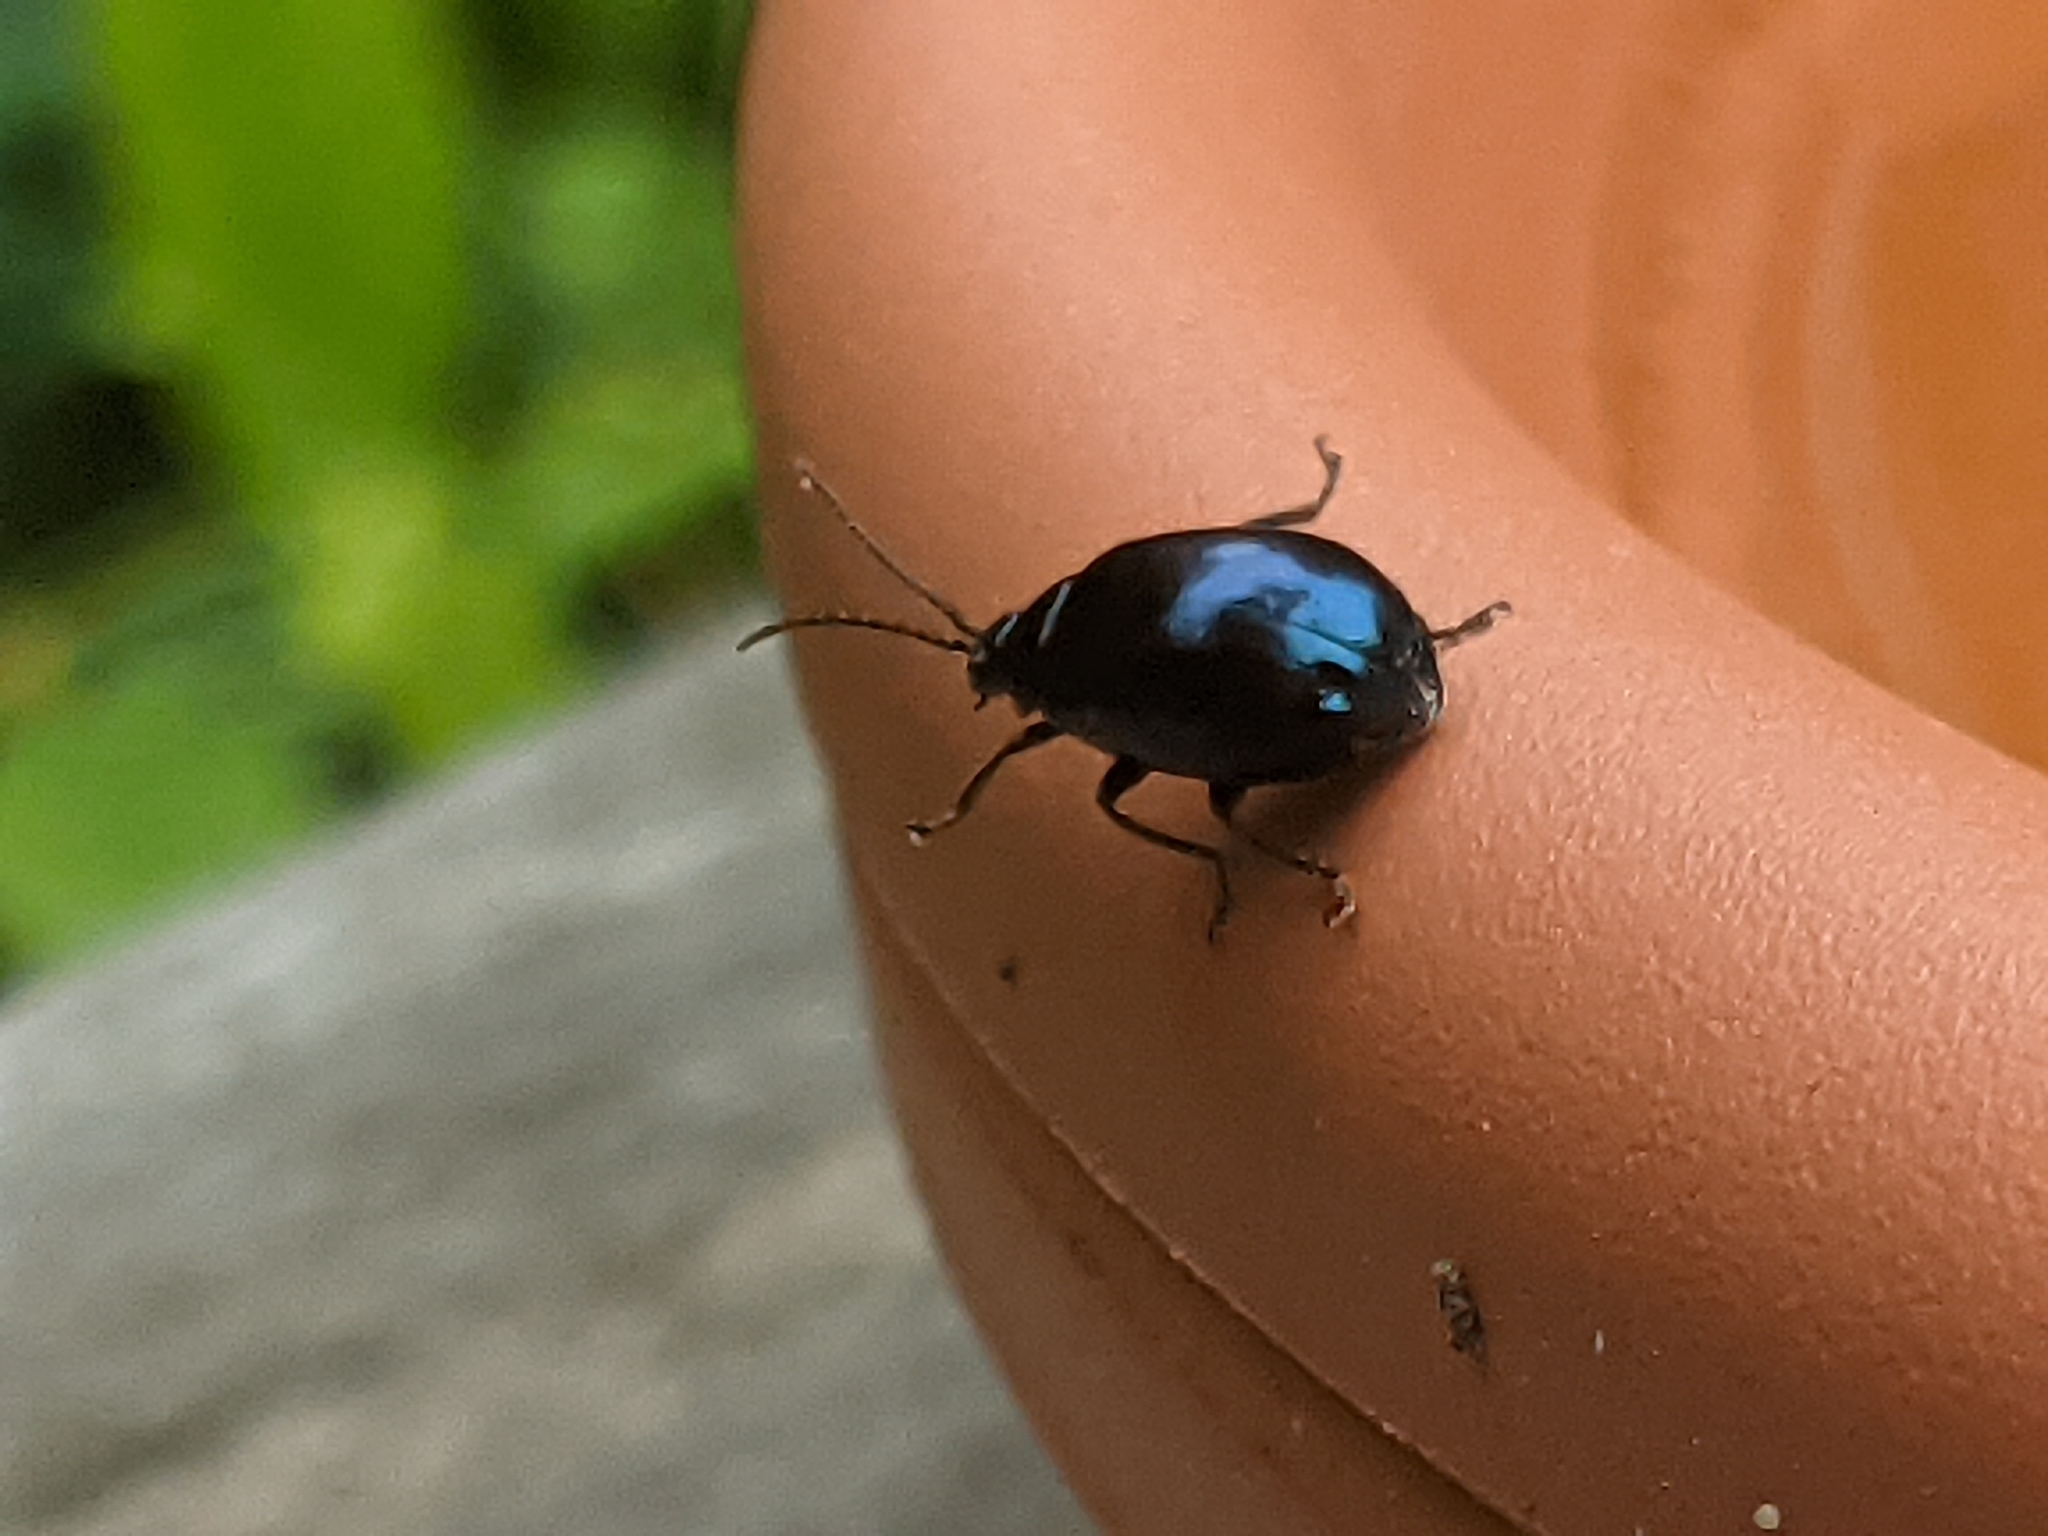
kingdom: Animalia
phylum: Arthropoda
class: Insecta
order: Coleoptera
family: Chrysomelidae
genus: Agelastica
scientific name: Agelastica alni
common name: Alder leaf beetle
